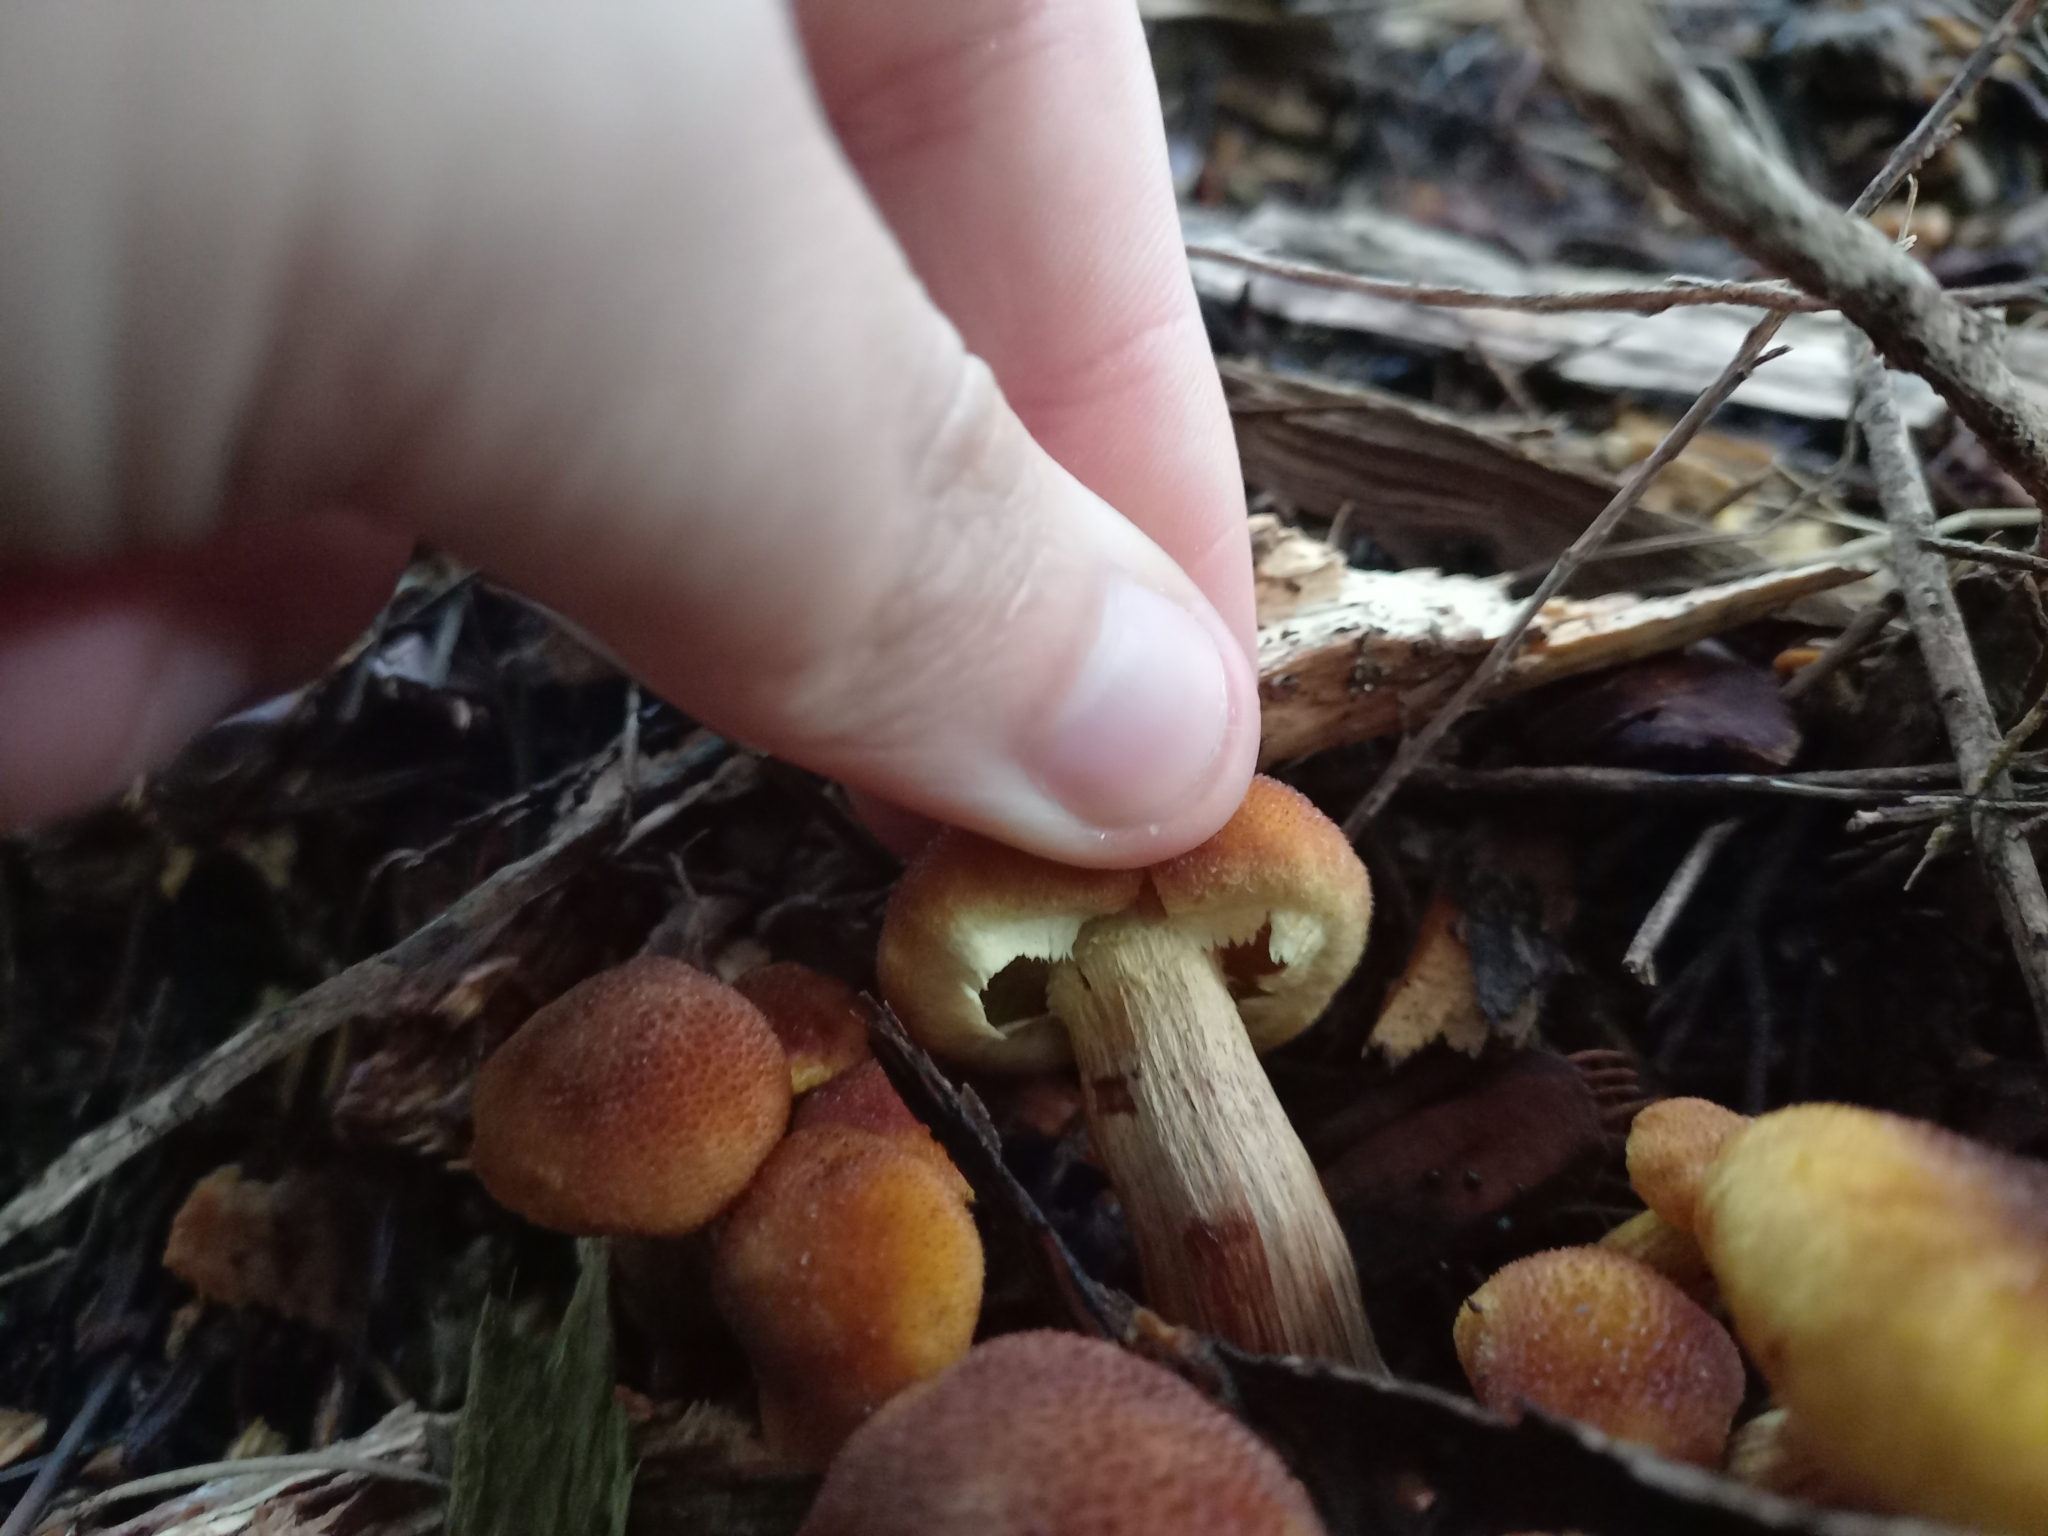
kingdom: Fungi
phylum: Basidiomycota
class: Agaricomycetes
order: Agaricales
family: Hymenogastraceae
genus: Gymnopilus
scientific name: Gymnopilus purpuratus
